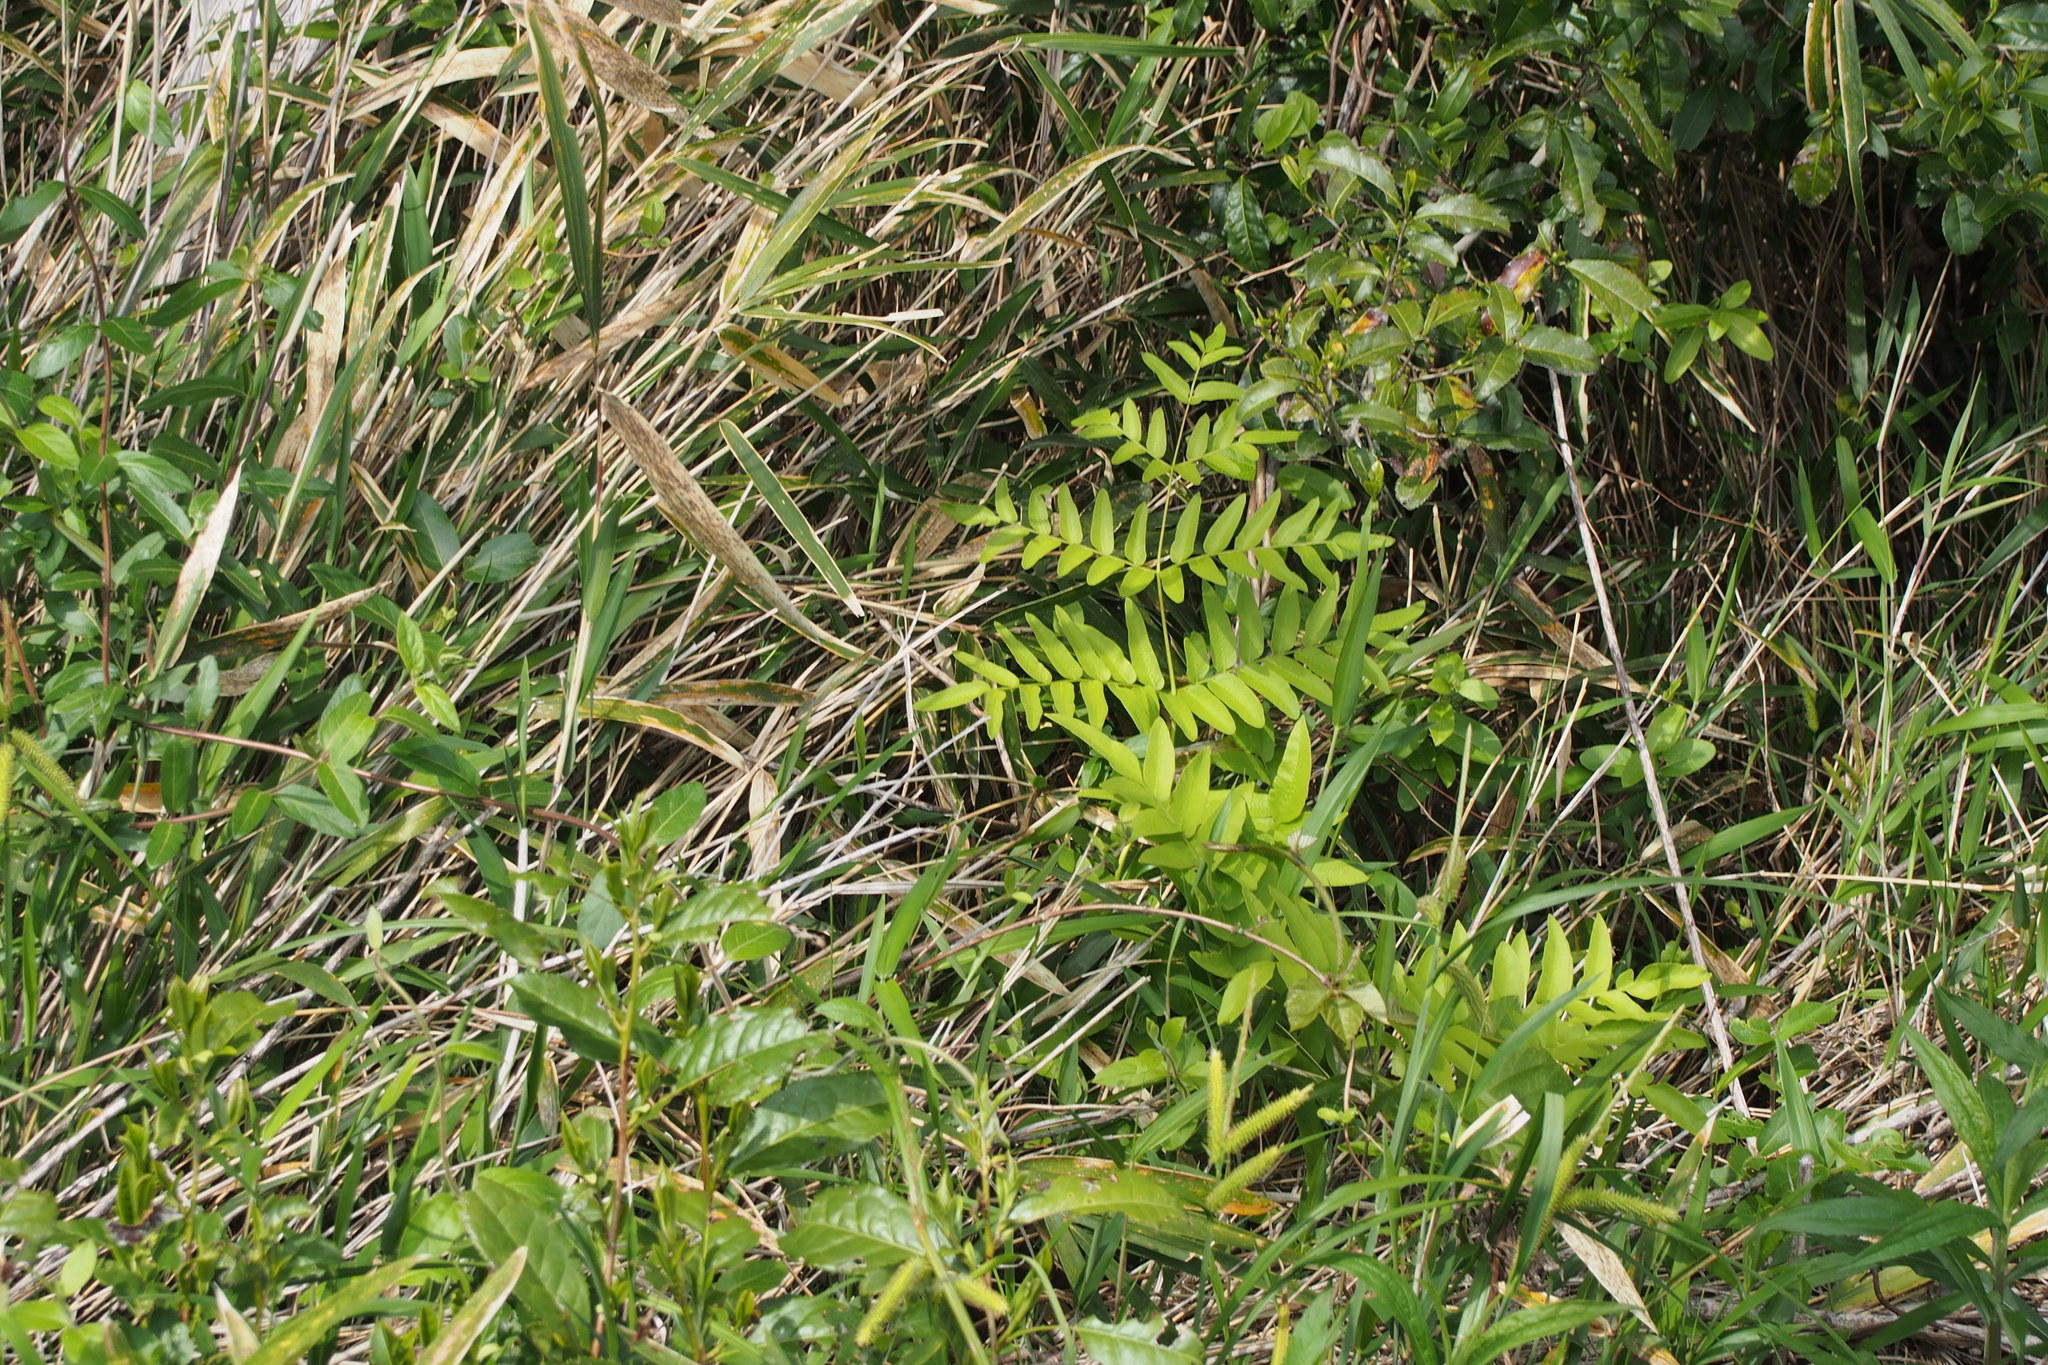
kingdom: Plantae
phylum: Tracheophyta
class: Polypodiopsida
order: Osmundales
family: Osmundaceae
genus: Osmunda
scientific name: Osmunda japonica
